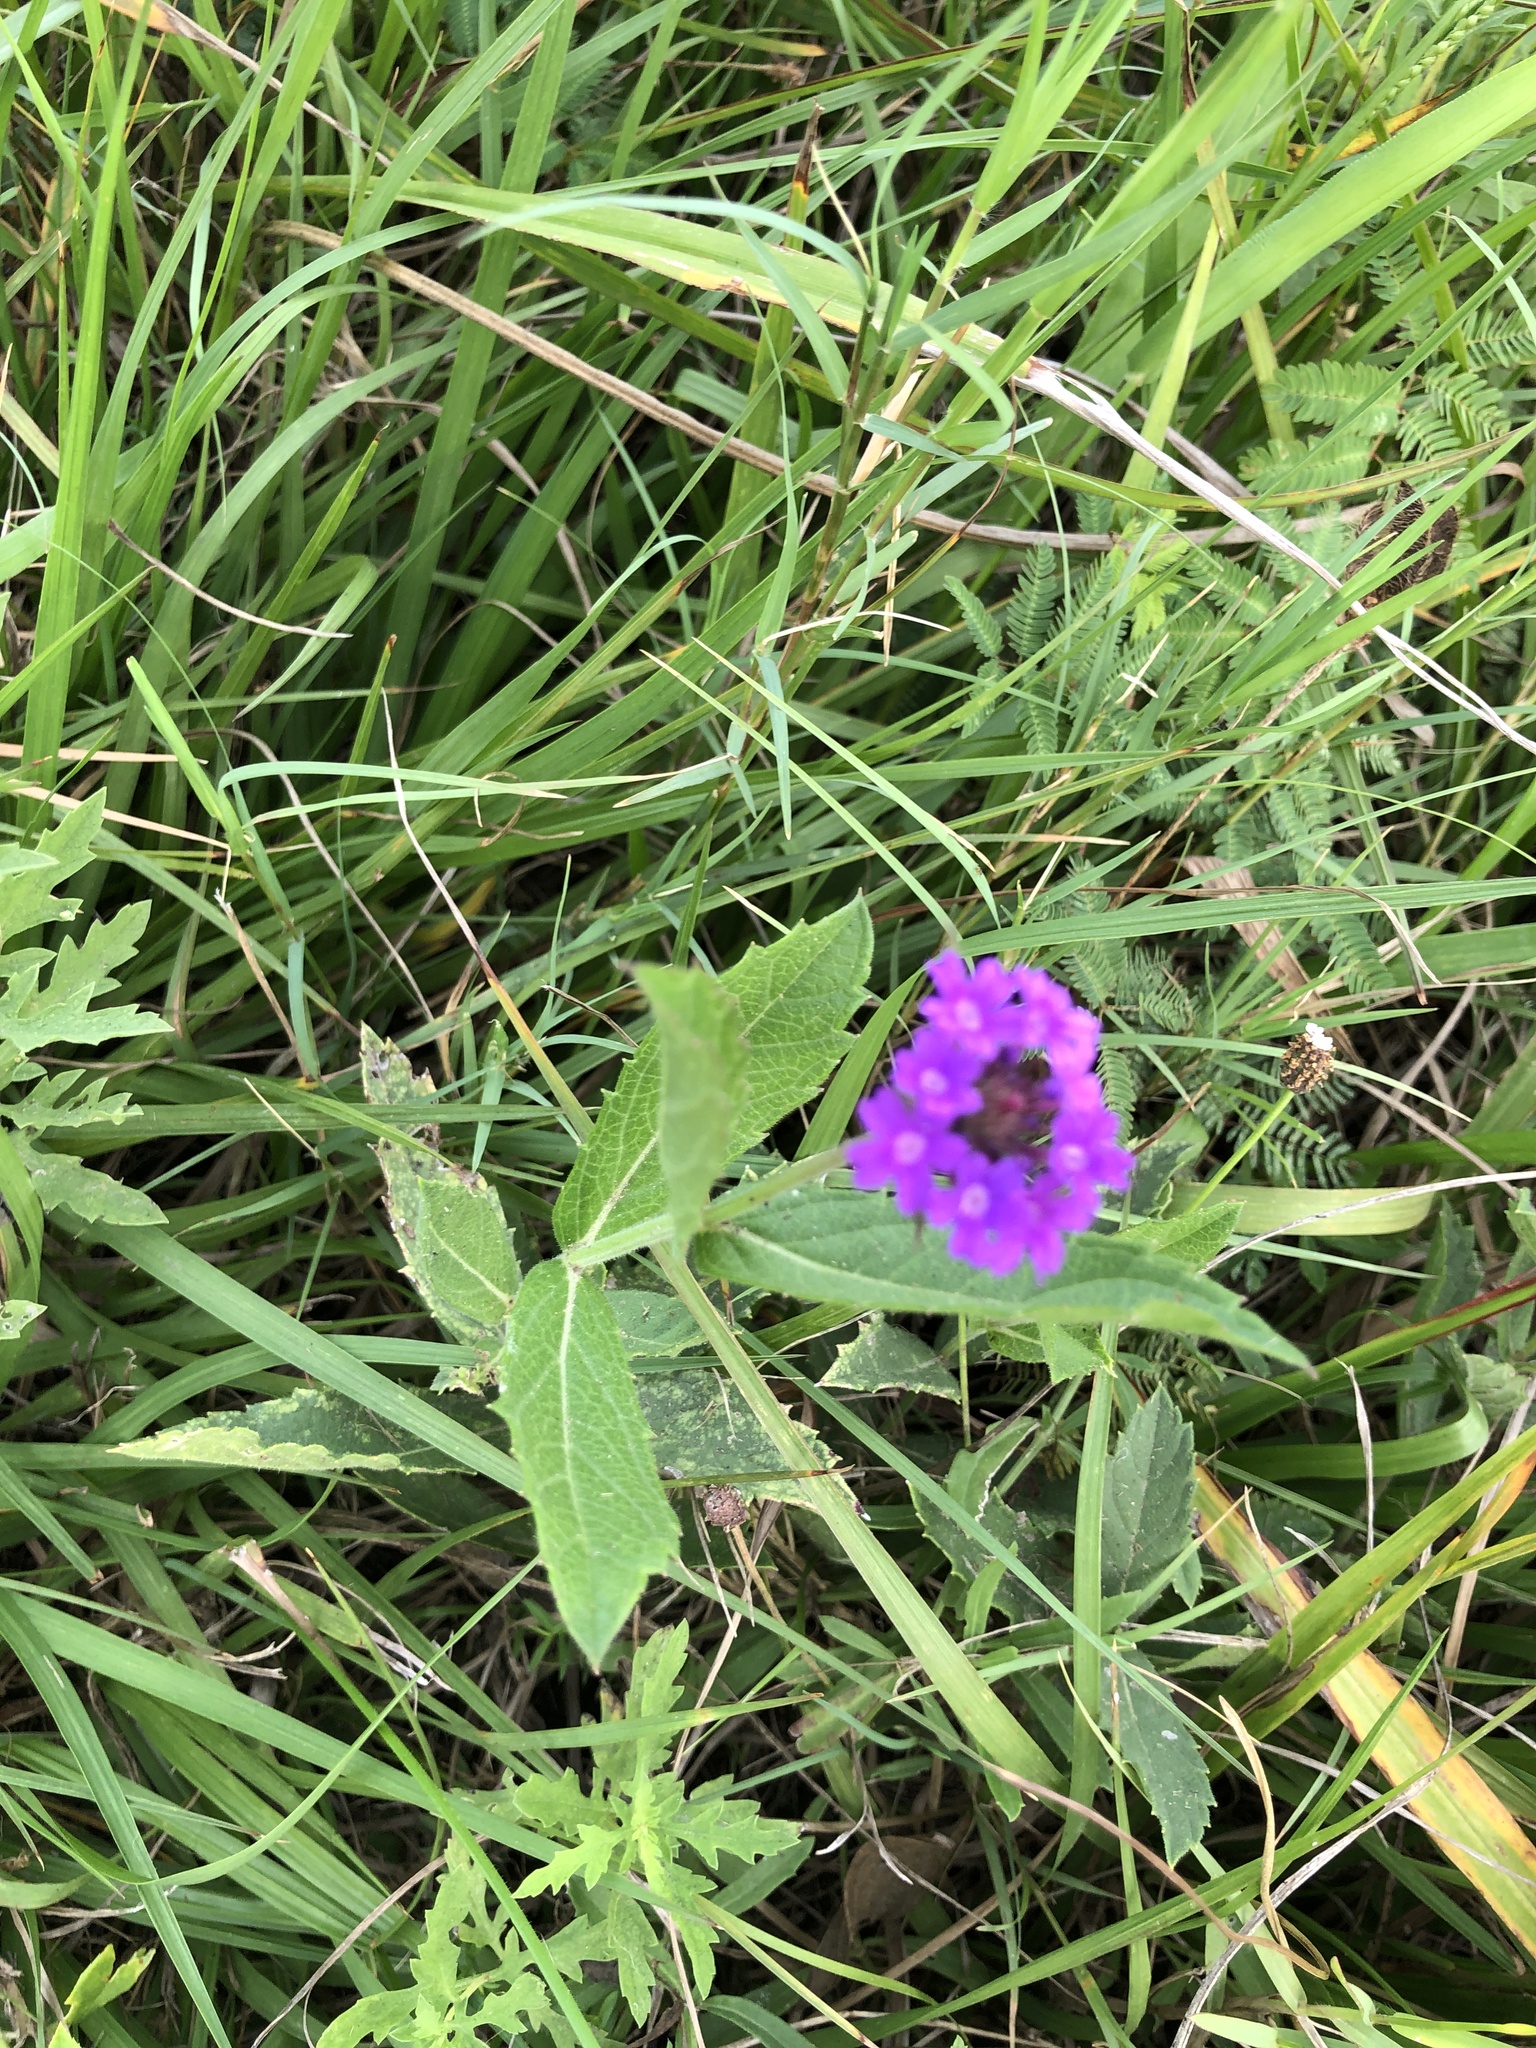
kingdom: Plantae
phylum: Tracheophyta
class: Magnoliopsida
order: Lamiales
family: Verbenaceae
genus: Verbena
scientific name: Verbena rigida
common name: Slender vervain
